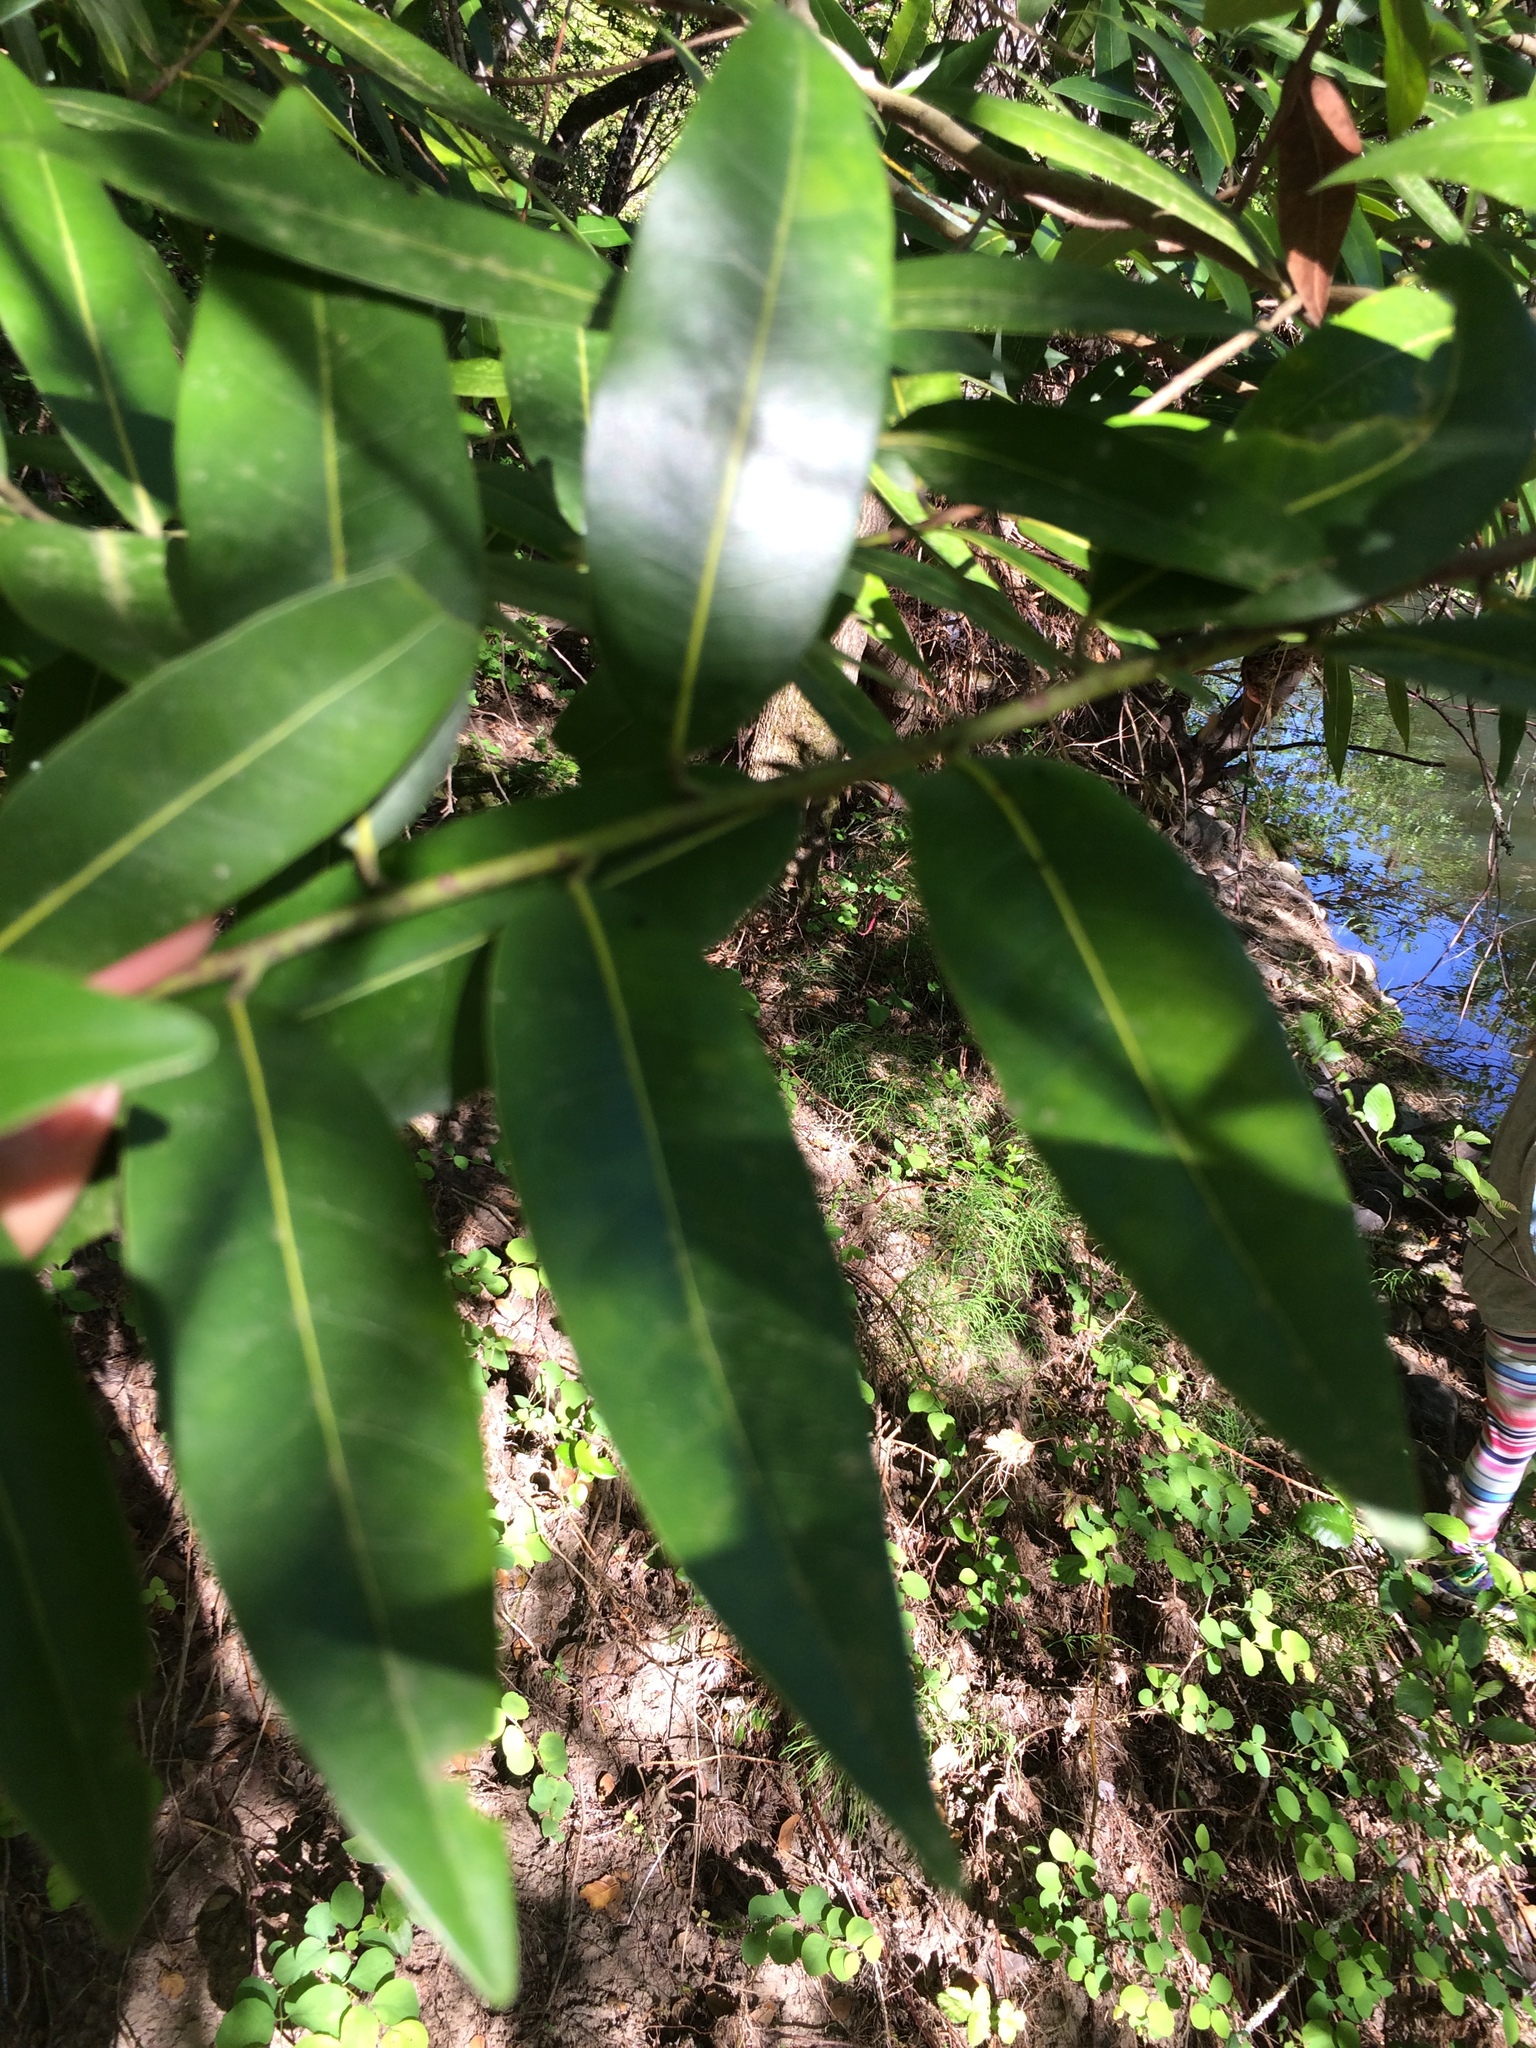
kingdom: Plantae
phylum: Tracheophyta
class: Magnoliopsida
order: Laurales
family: Lauraceae
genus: Umbellularia
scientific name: Umbellularia californica
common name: California bay
